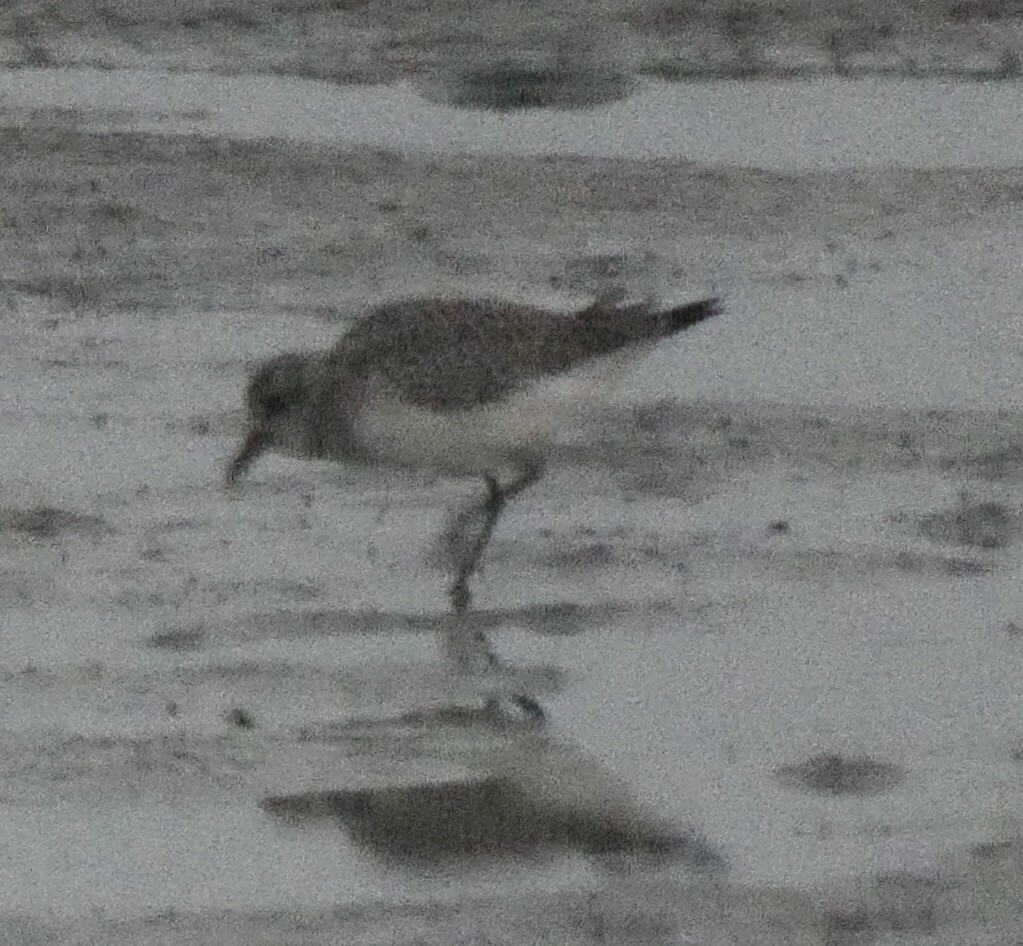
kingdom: Animalia
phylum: Chordata
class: Aves
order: Charadriiformes
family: Charadriidae
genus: Pluvialis
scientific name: Pluvialis squatarola
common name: Grey plover
